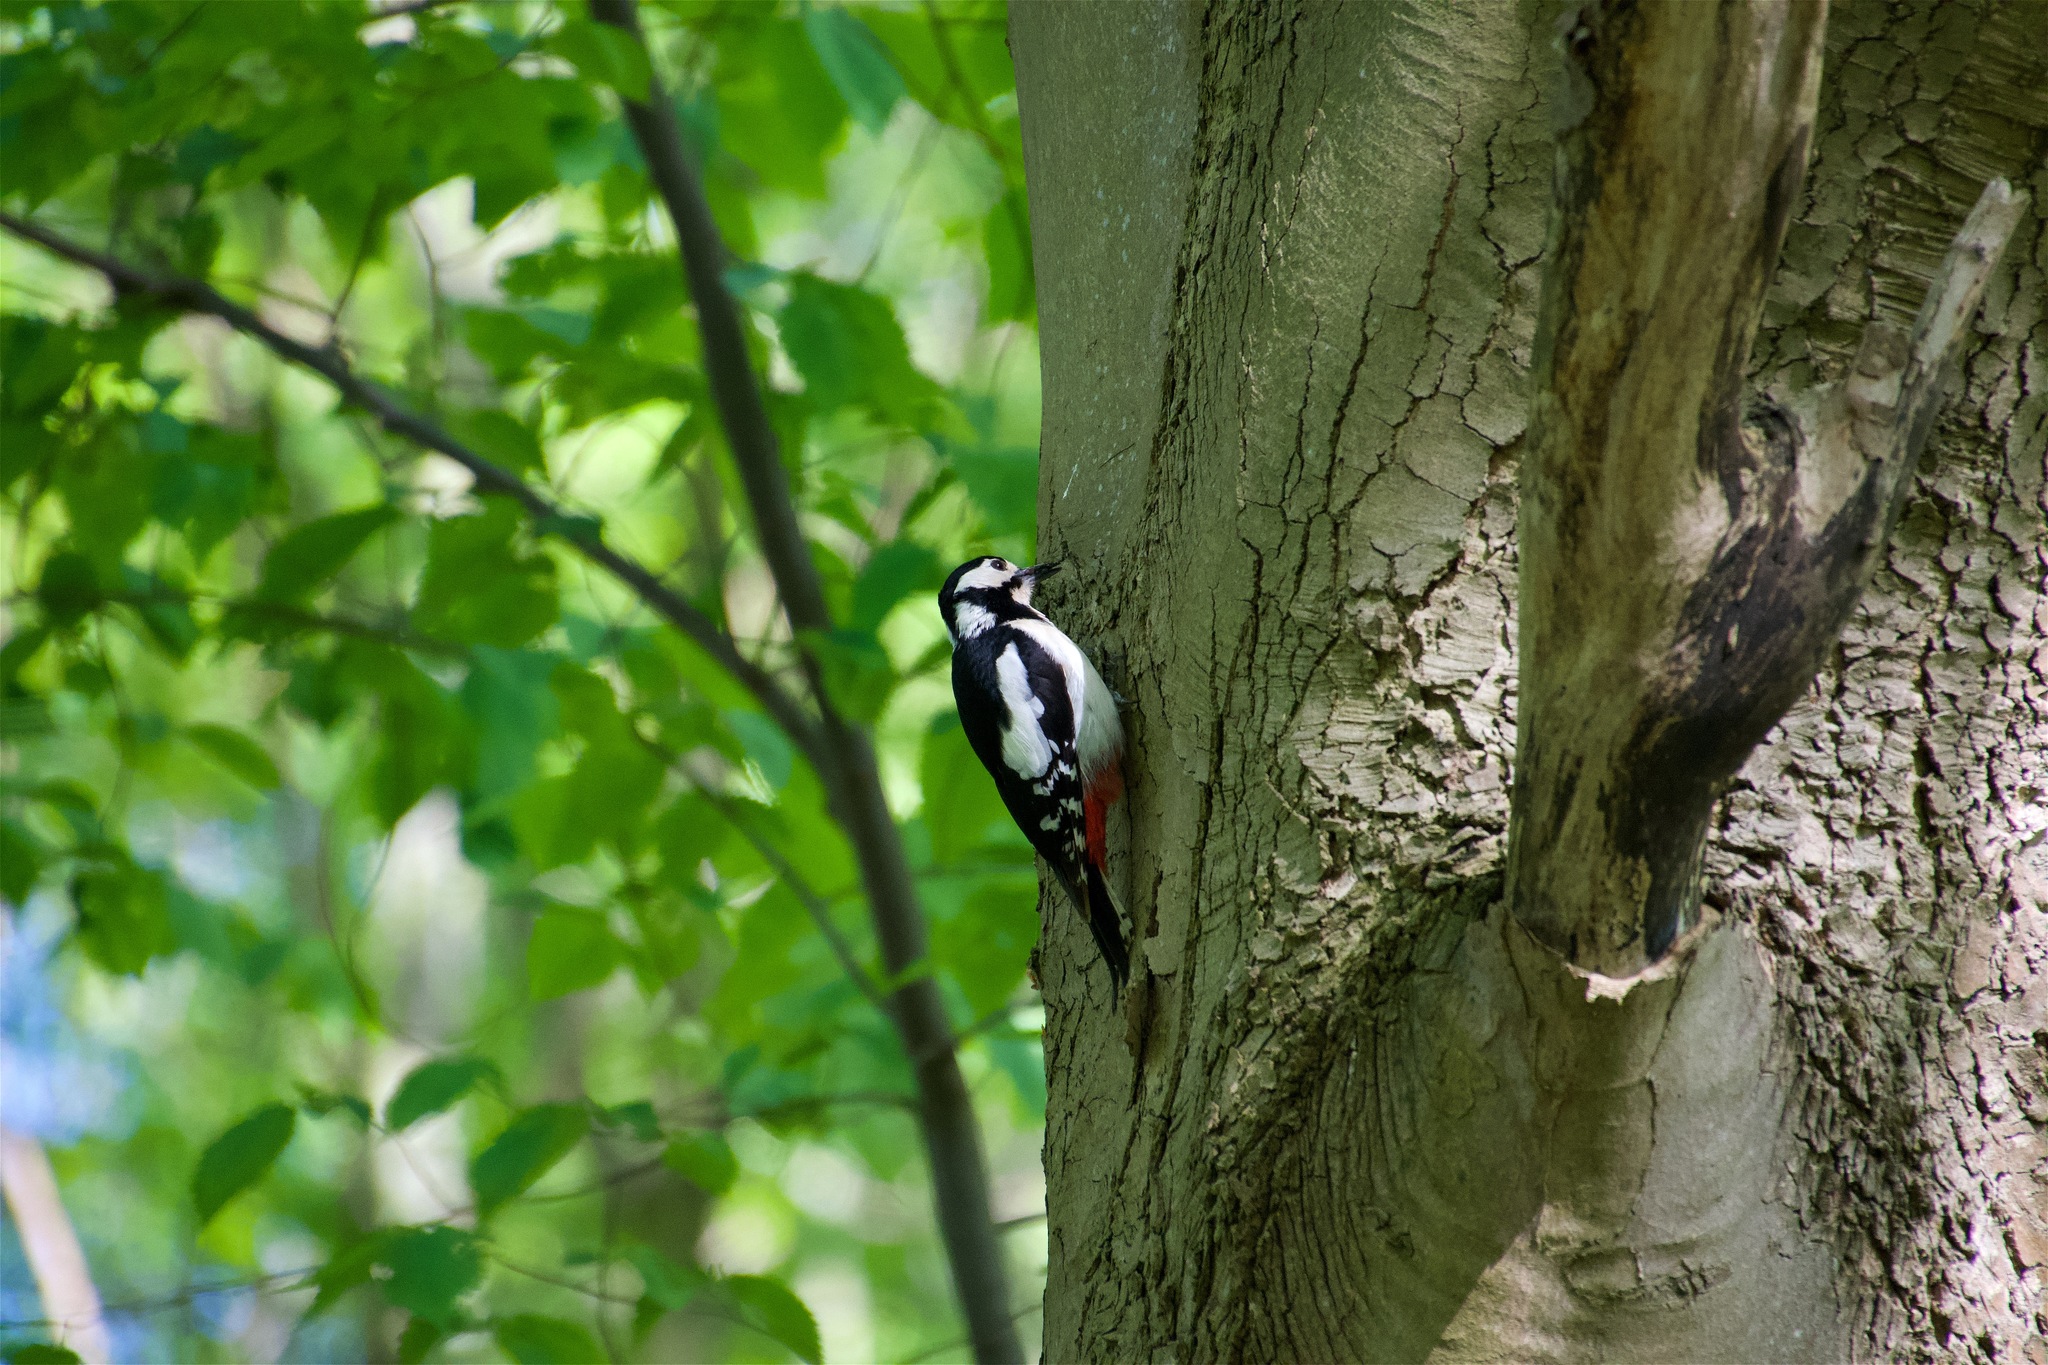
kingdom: Animalia
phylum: Chordata
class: Aves
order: Piciformes
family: Picidae
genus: Dendrocopos
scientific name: Dendrocopos major
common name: Great spotted woodpecker
